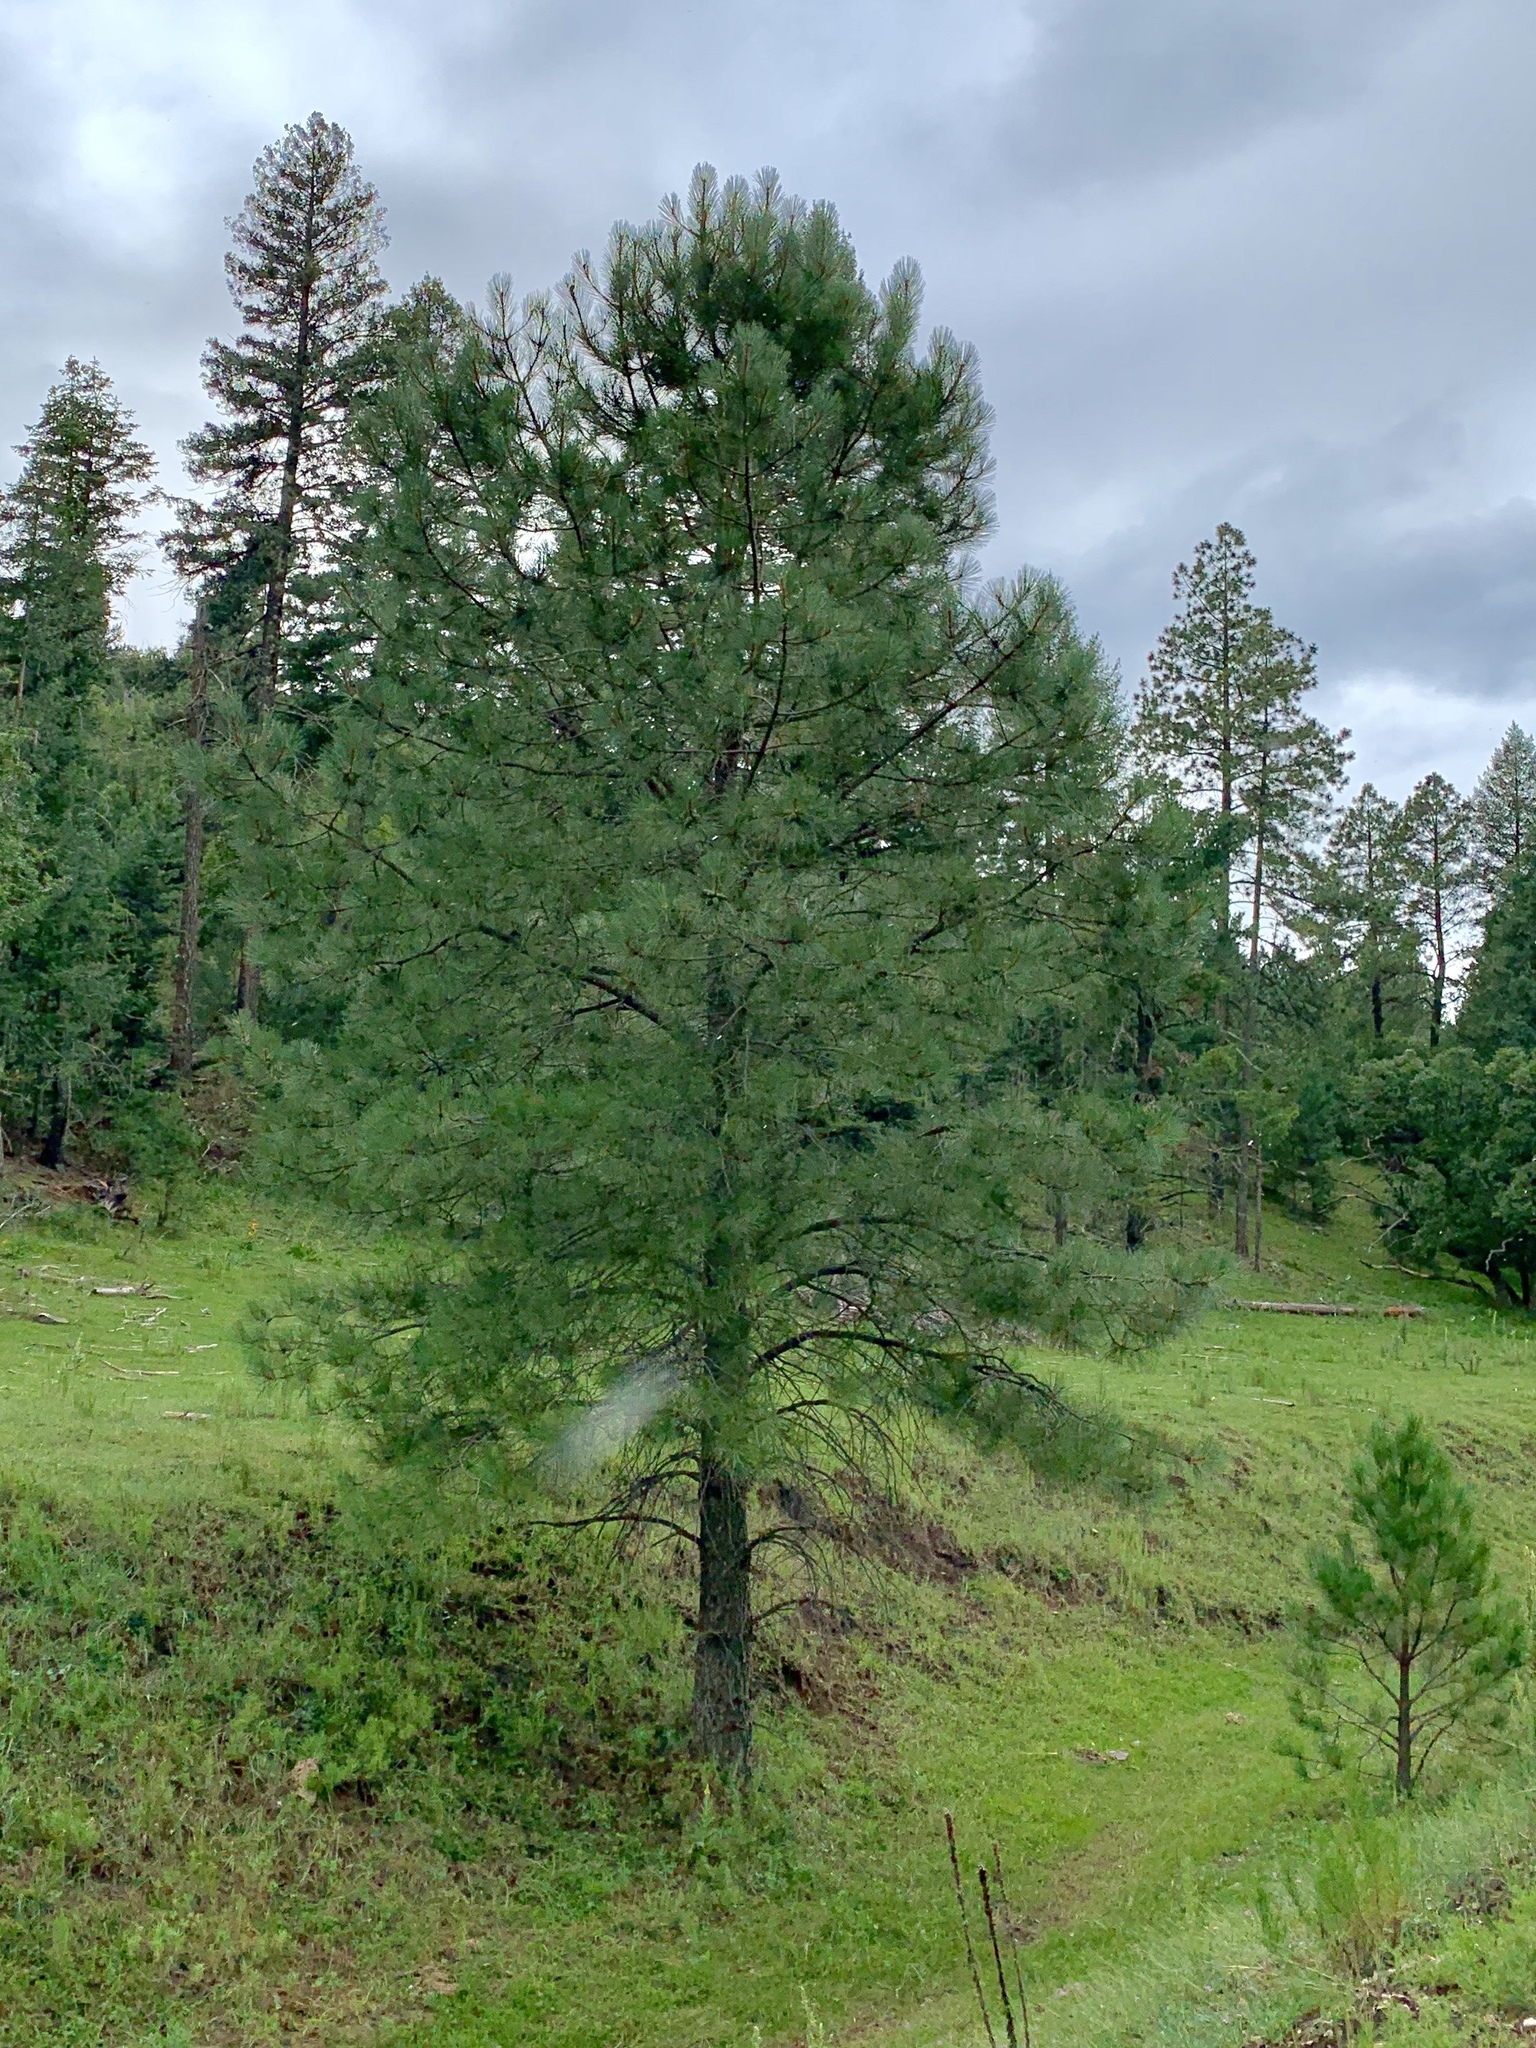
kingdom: Plantae
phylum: Tracheophyta
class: Pinopsida
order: Pinales
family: Pinaceae
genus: Pinus
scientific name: Pinus ponderosa
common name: Western yellow-pine
